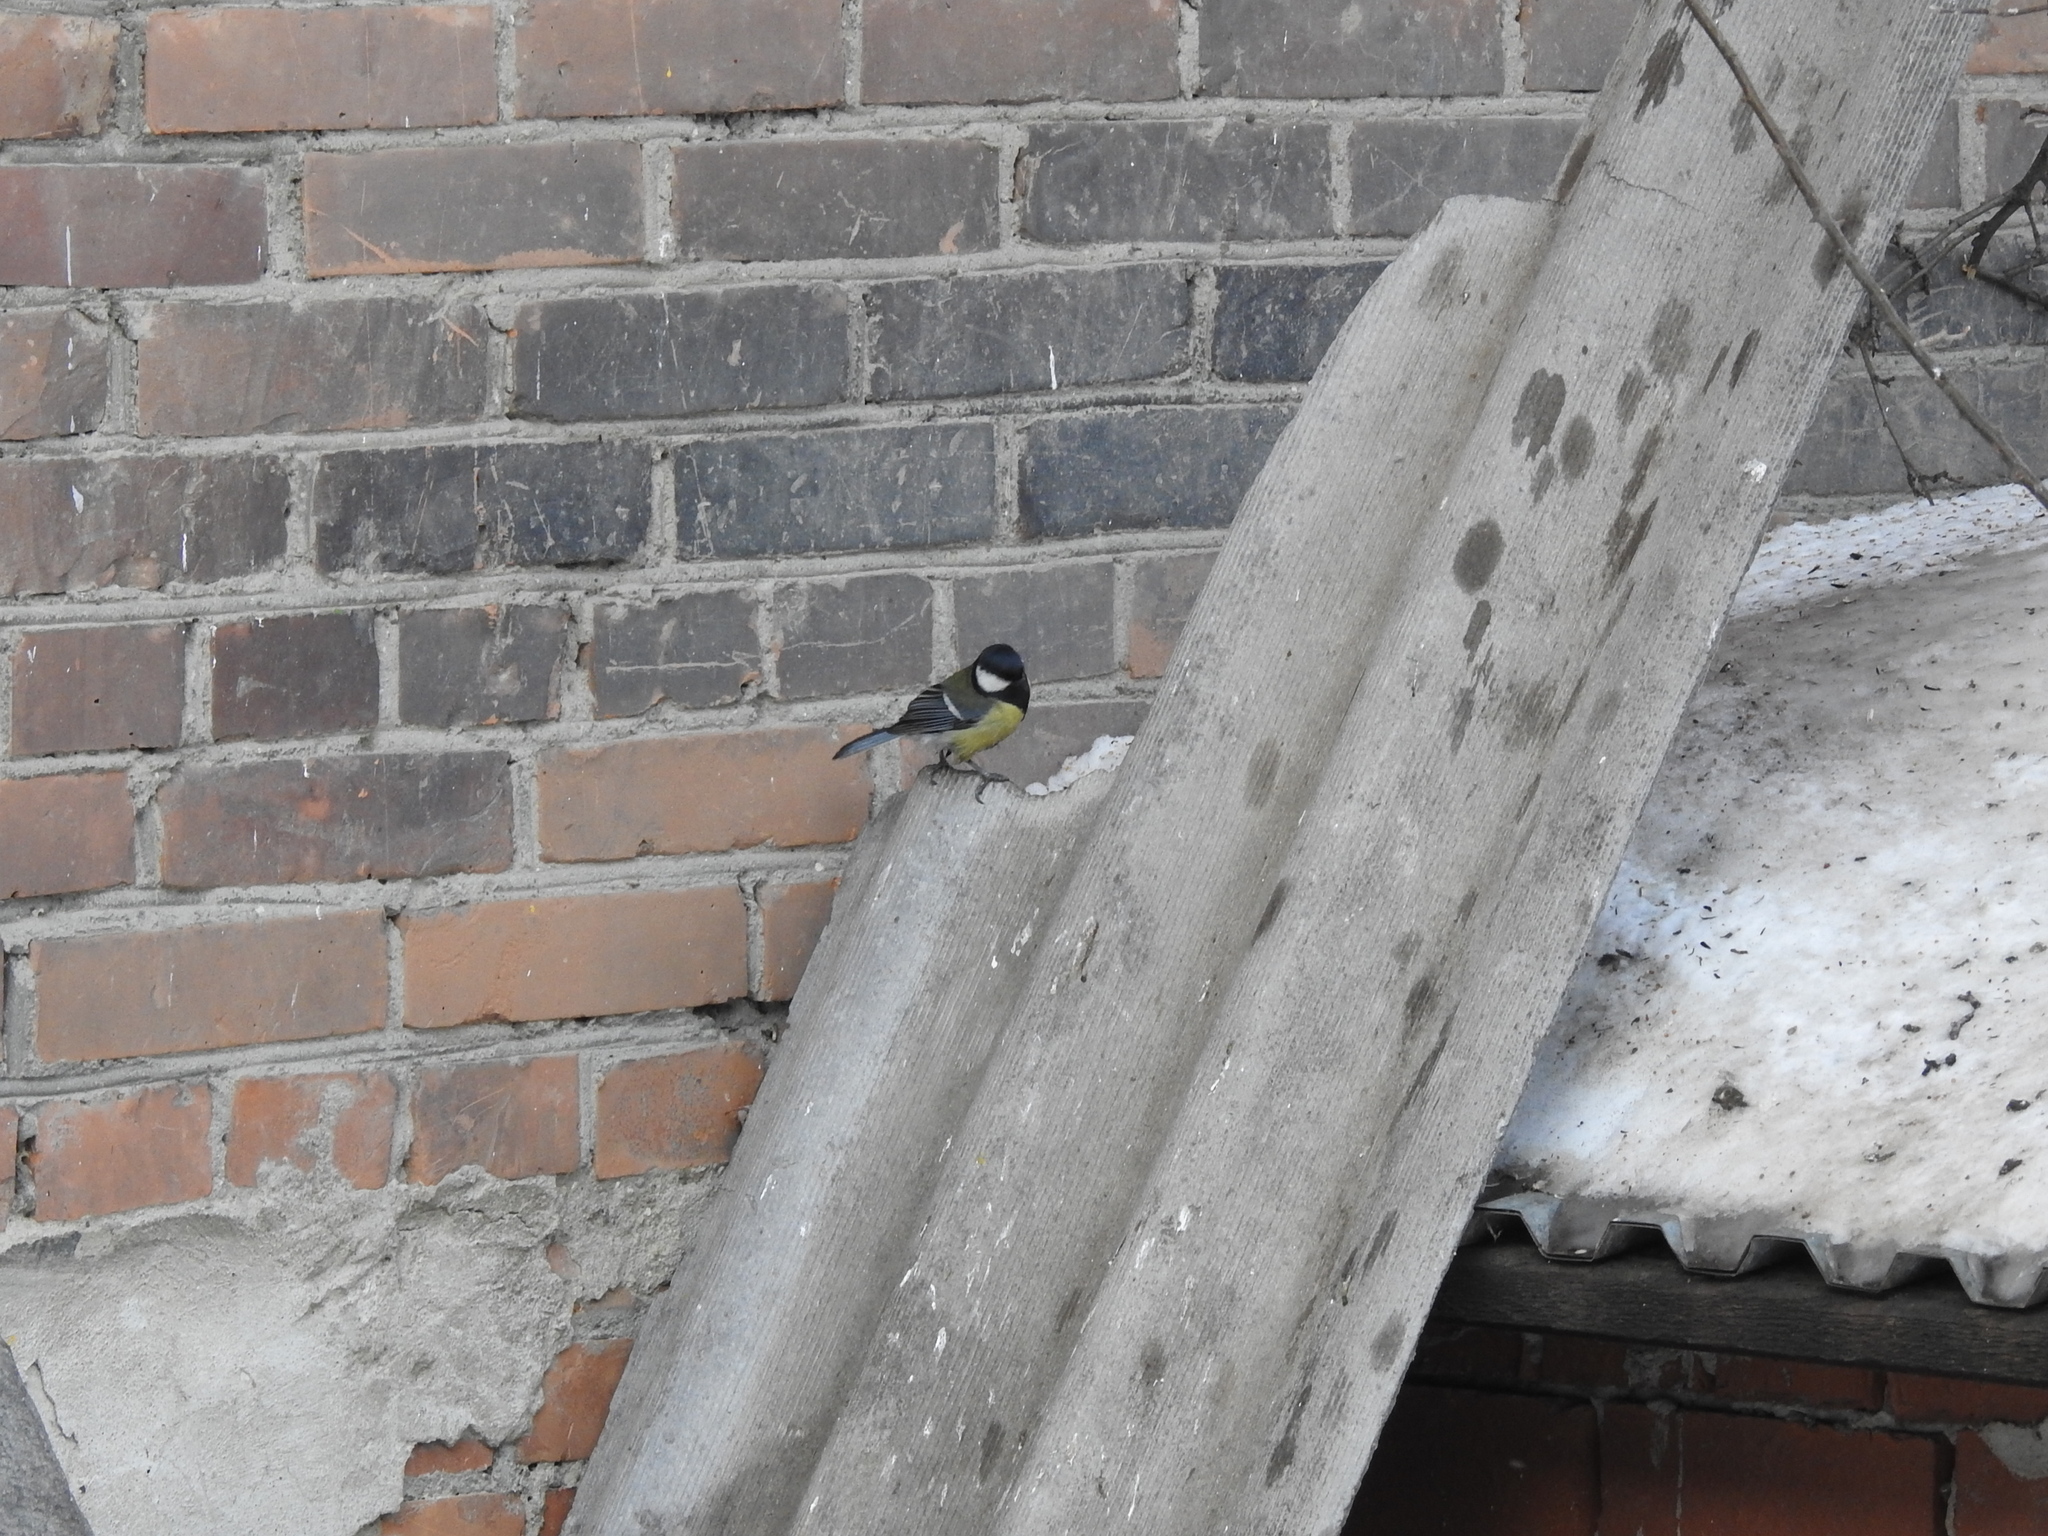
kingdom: Animalia
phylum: Chordata
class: Aves
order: Passeriformes
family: Paridae
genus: Parus
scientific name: Parus major
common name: Great tit
